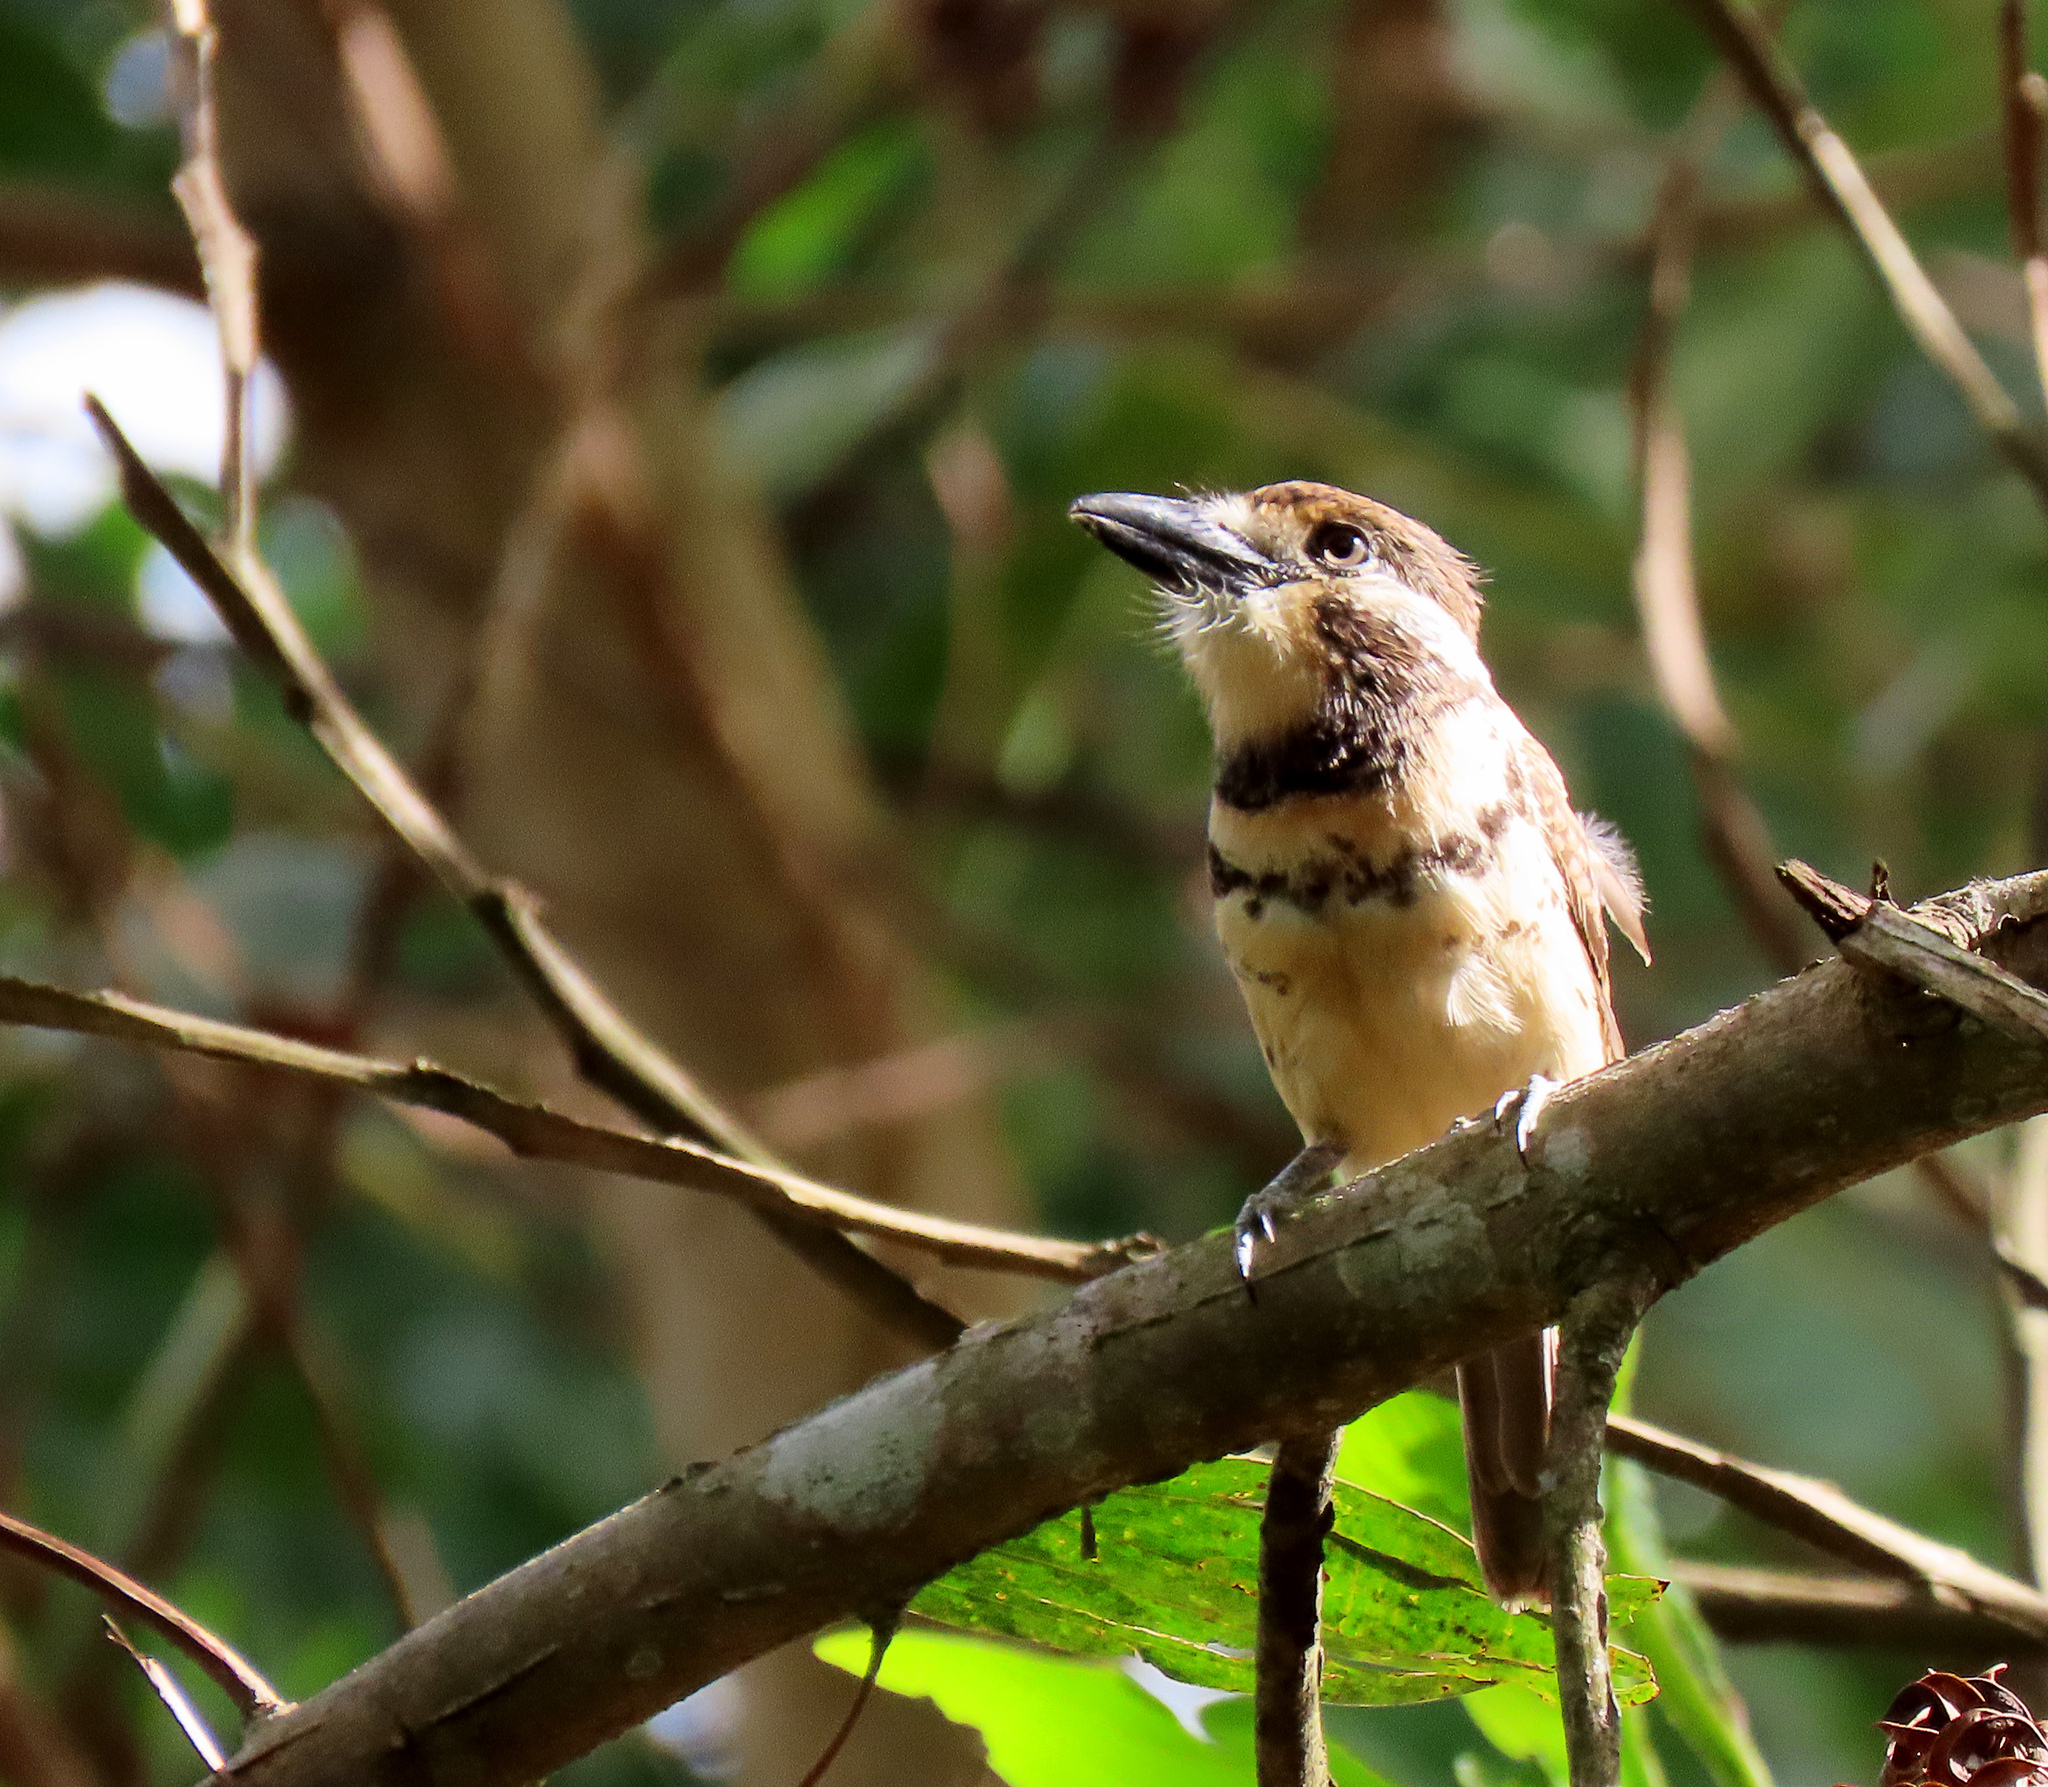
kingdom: Animalia
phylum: Chordata
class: Aves
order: Piciformes
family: Bucconidae
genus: Hypnelus
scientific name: Hypnelus bicinctus
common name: Two-banded puffbird
